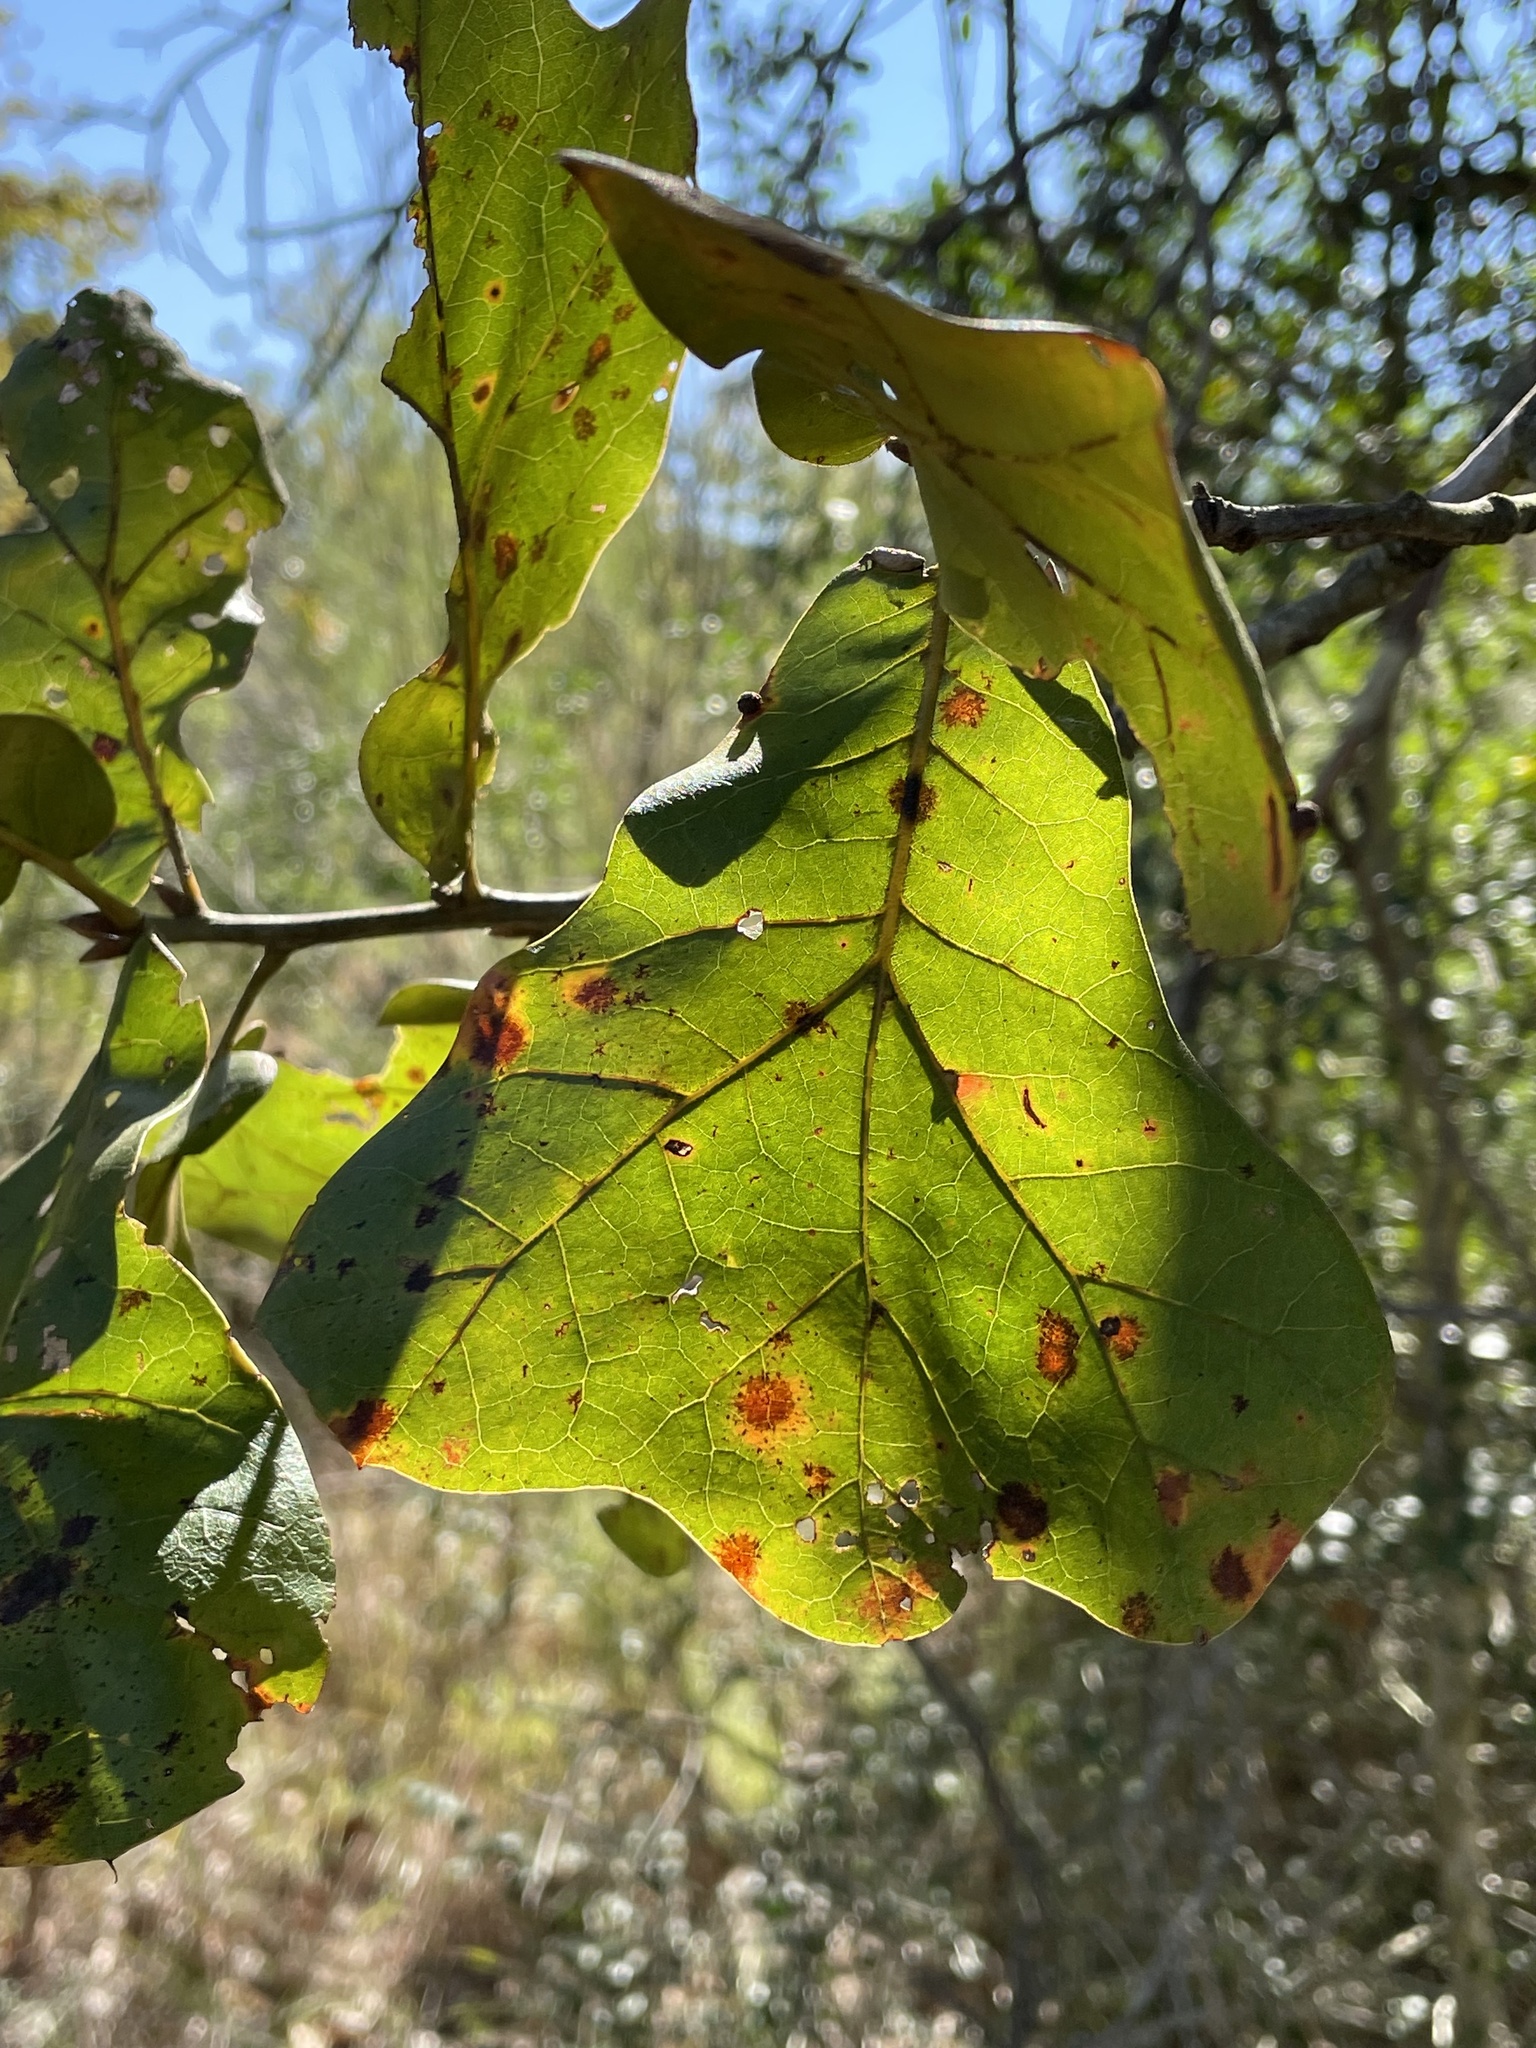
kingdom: Plantae
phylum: Tracheophyta
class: Magnoliopsida
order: Fagales
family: Fagaceae
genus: Quercus
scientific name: Quercus marilandica
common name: Blackjack oak
